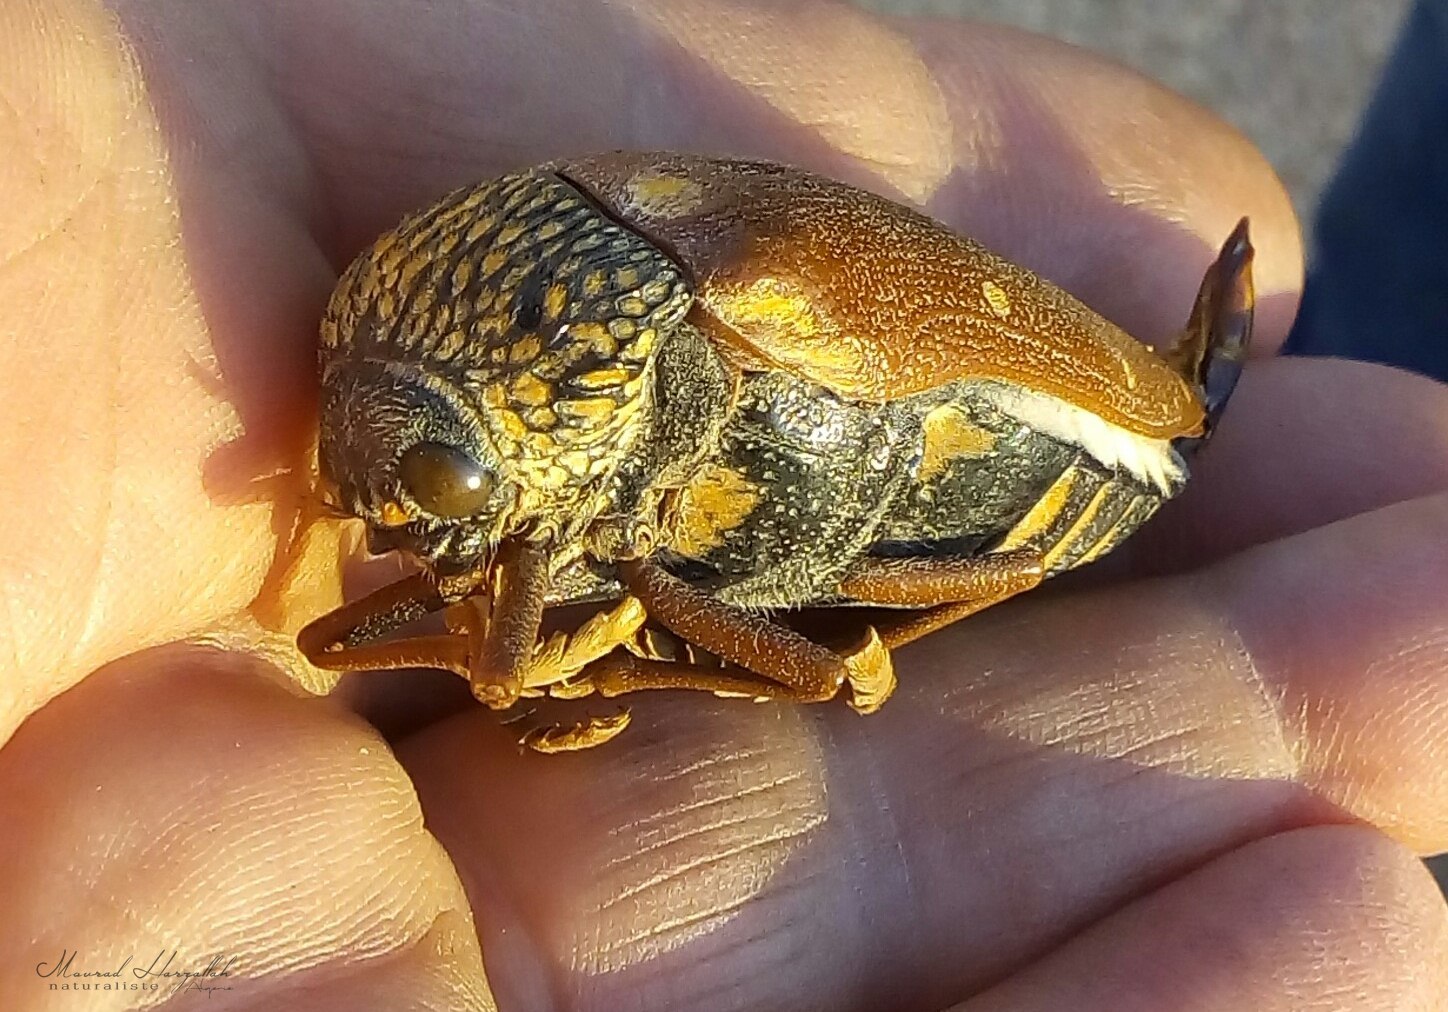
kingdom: Animalia
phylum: Arthropoda
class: Insecta
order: Coleoptera
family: Buprestidae
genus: Sternocera
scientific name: Sternocera castanea
